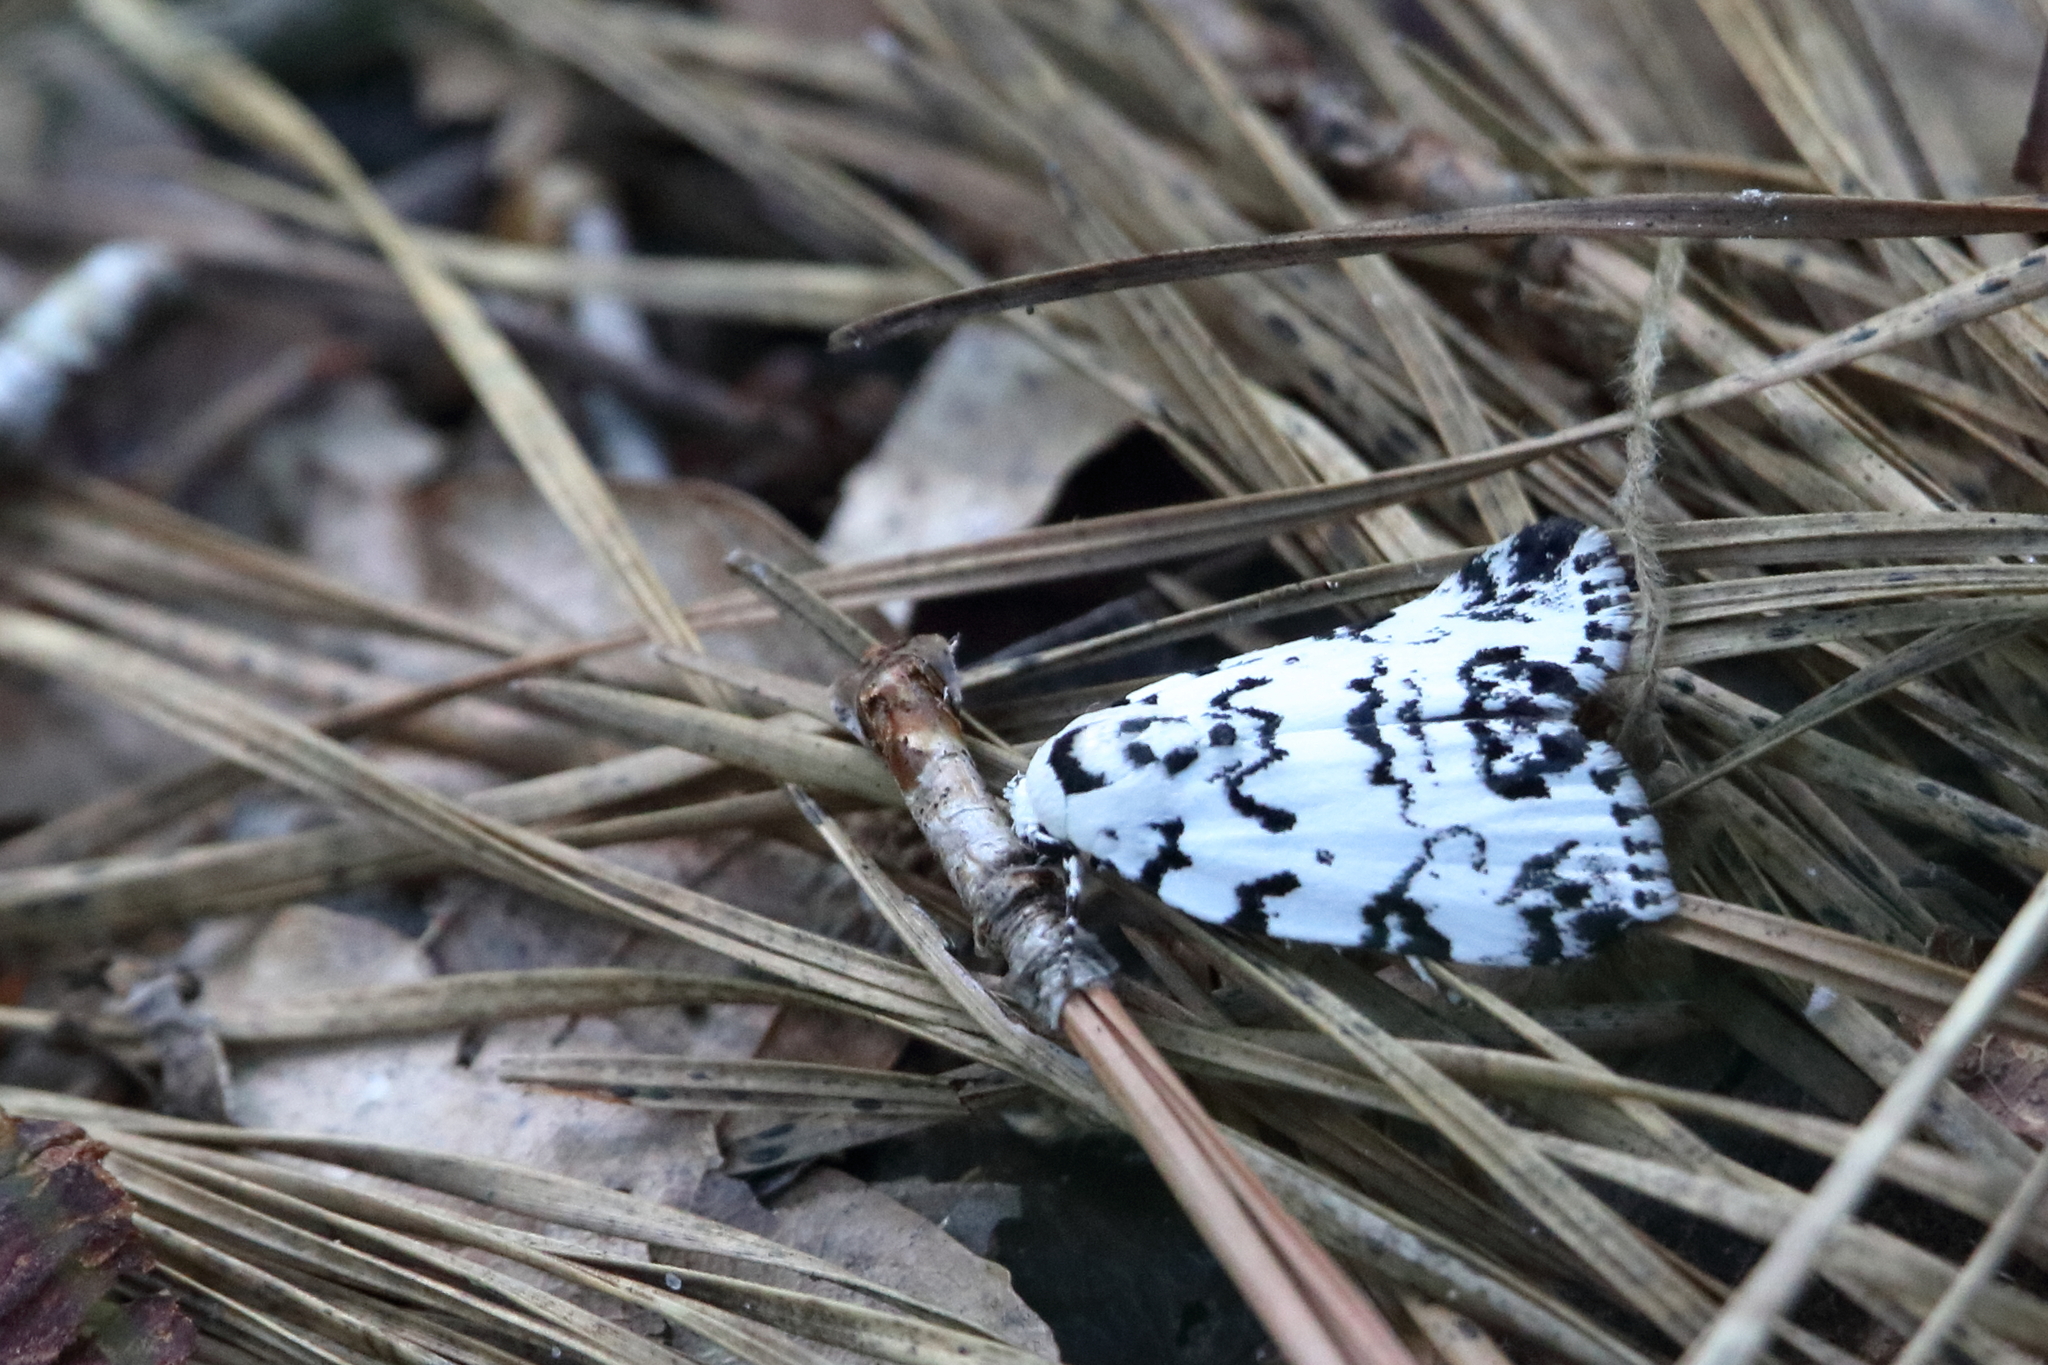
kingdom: Animalia
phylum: Arthropoda
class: Insecta
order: Lepidoptera
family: Noctuidae
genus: Polygrammate
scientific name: Polygrammate hebraeicum
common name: Hebrew moth
